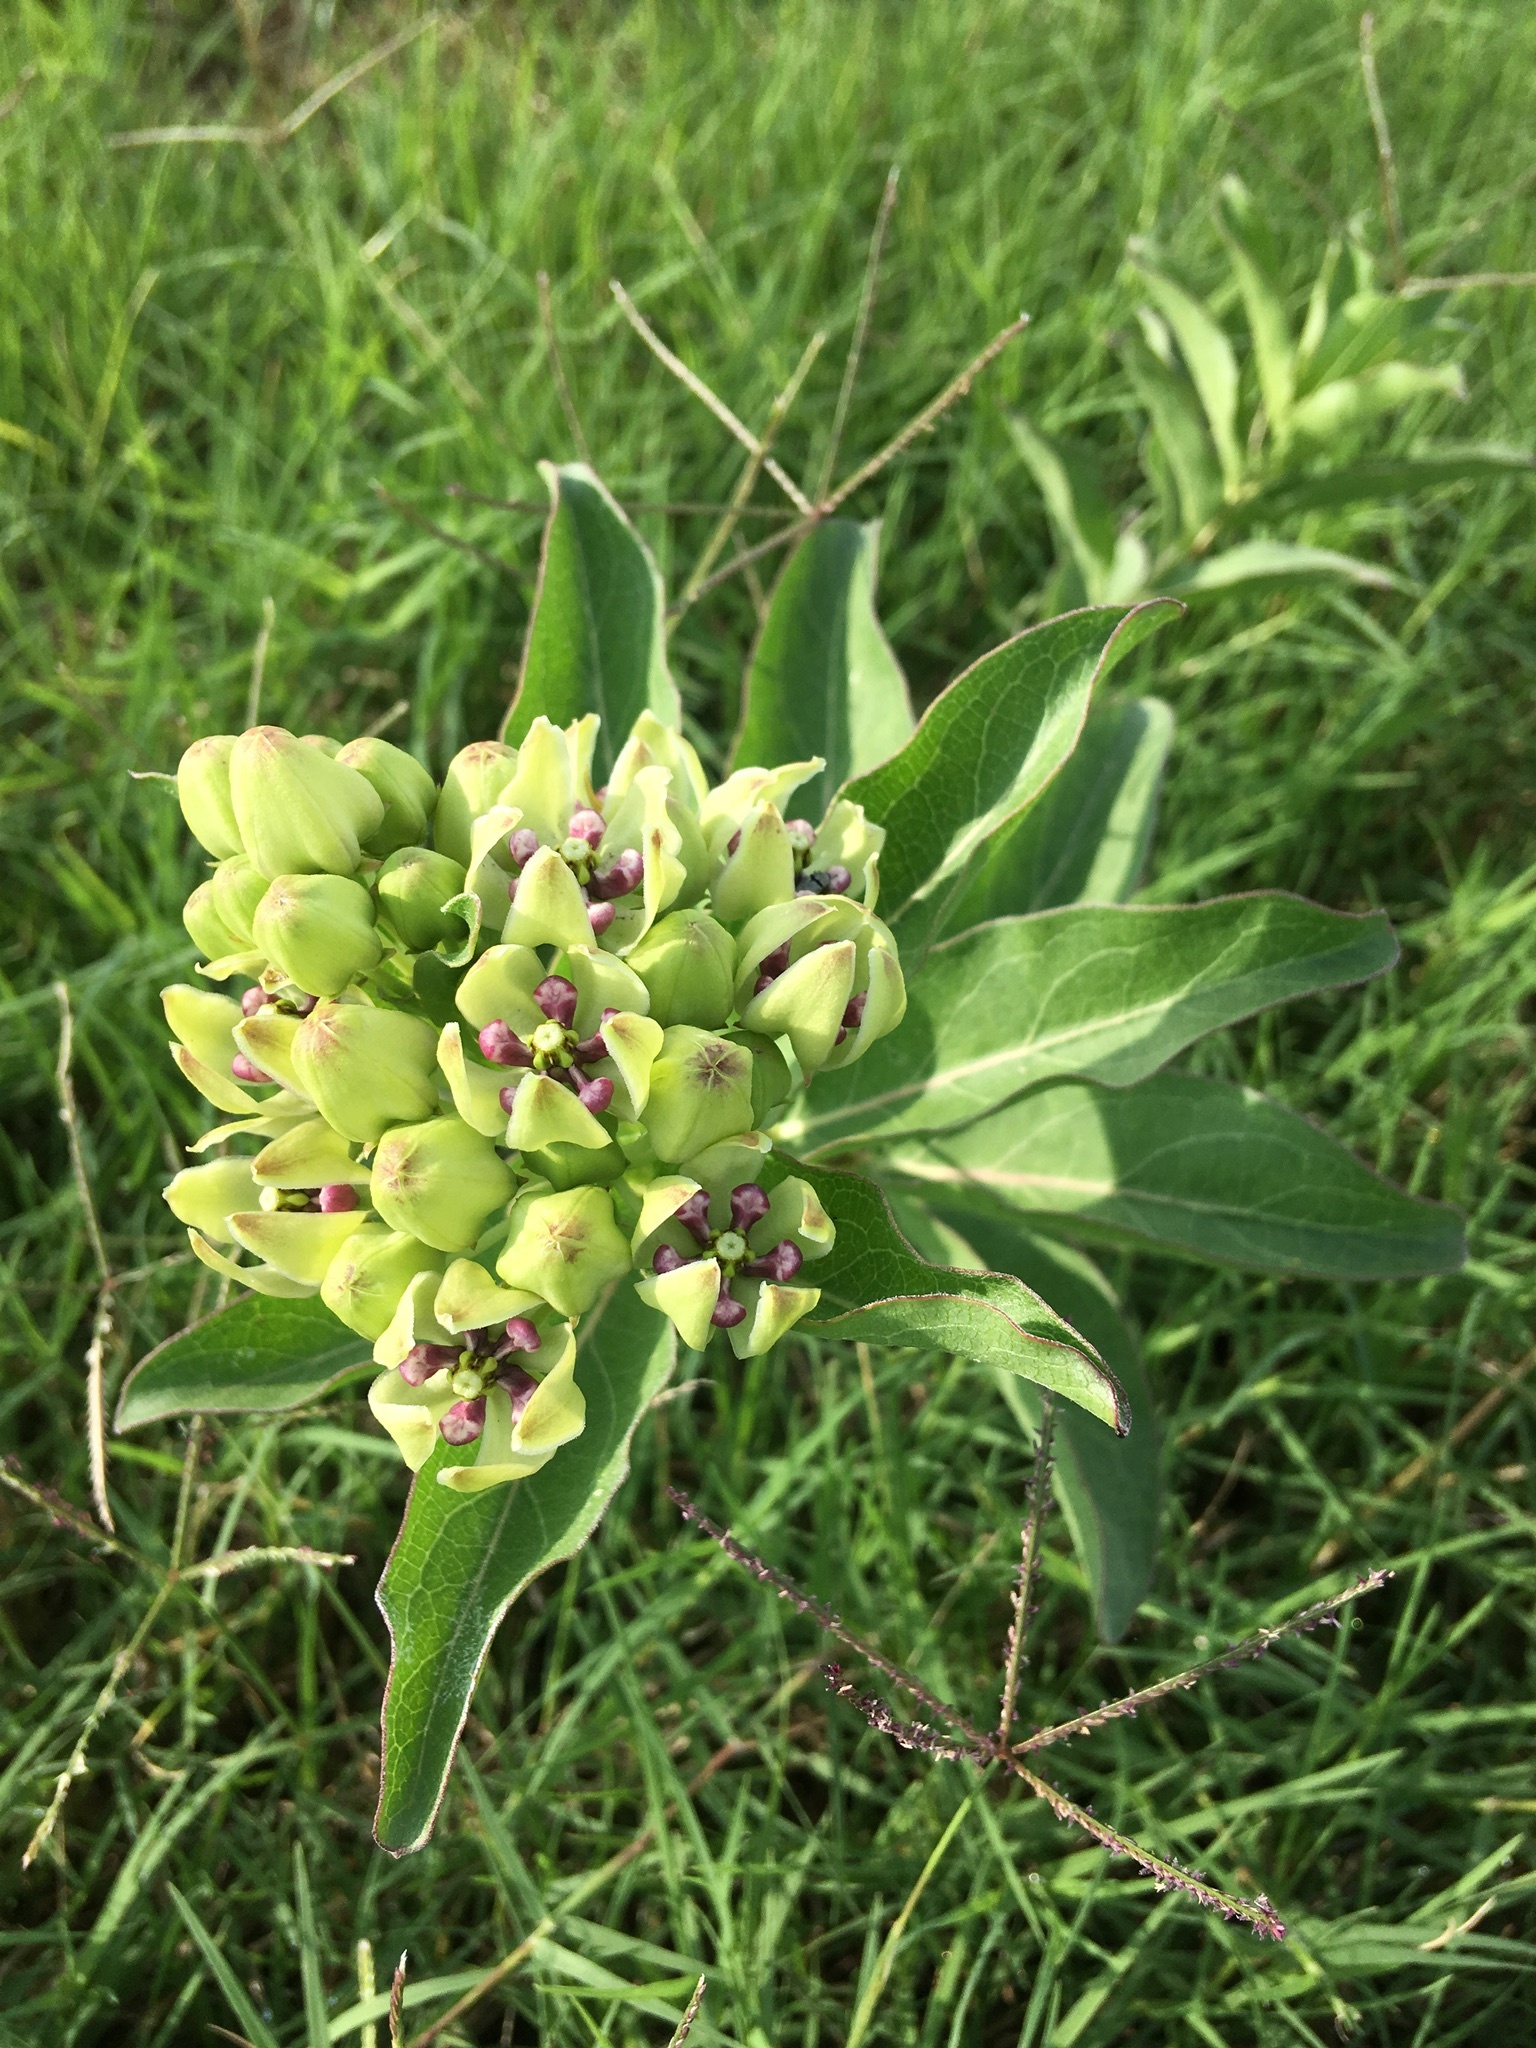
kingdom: Plantae
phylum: Tracheophyta
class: Magnoliopsida
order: Gentianales
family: Apocynaceae
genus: Asclepias
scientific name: Asclepias viridis
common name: Antelope-horns
